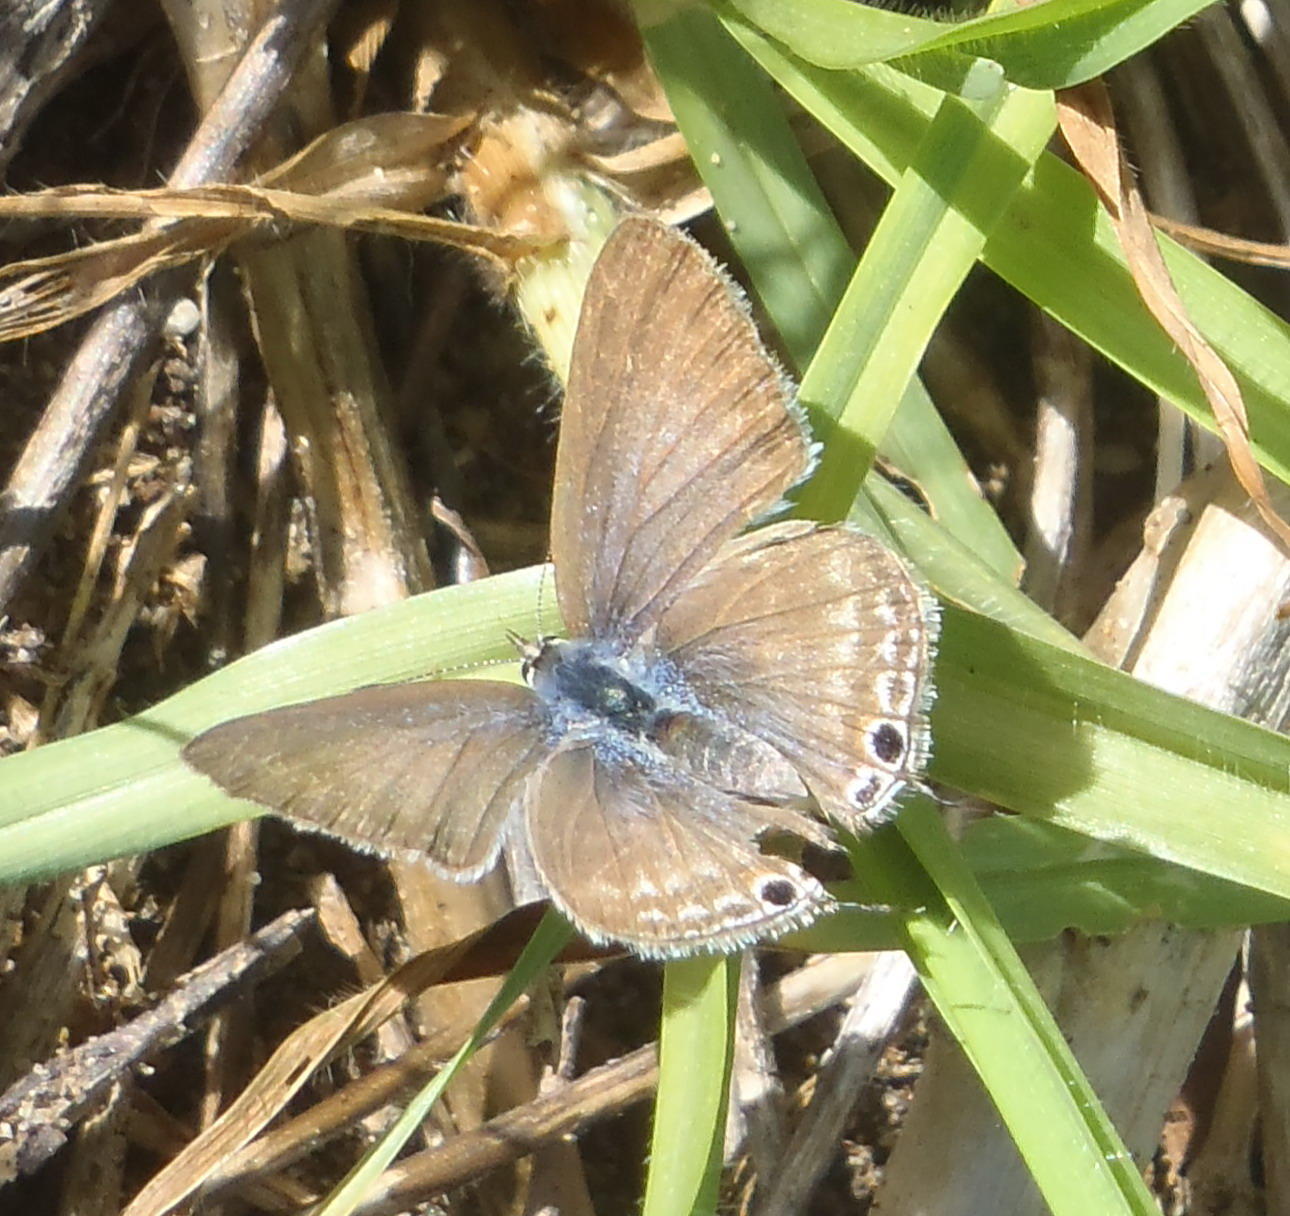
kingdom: Animalia
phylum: Arthropoda
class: Insecta
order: Lepidoptera
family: Lycaenidae
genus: Lampides
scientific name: Lampides boeticus
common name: Long-tailed blue
